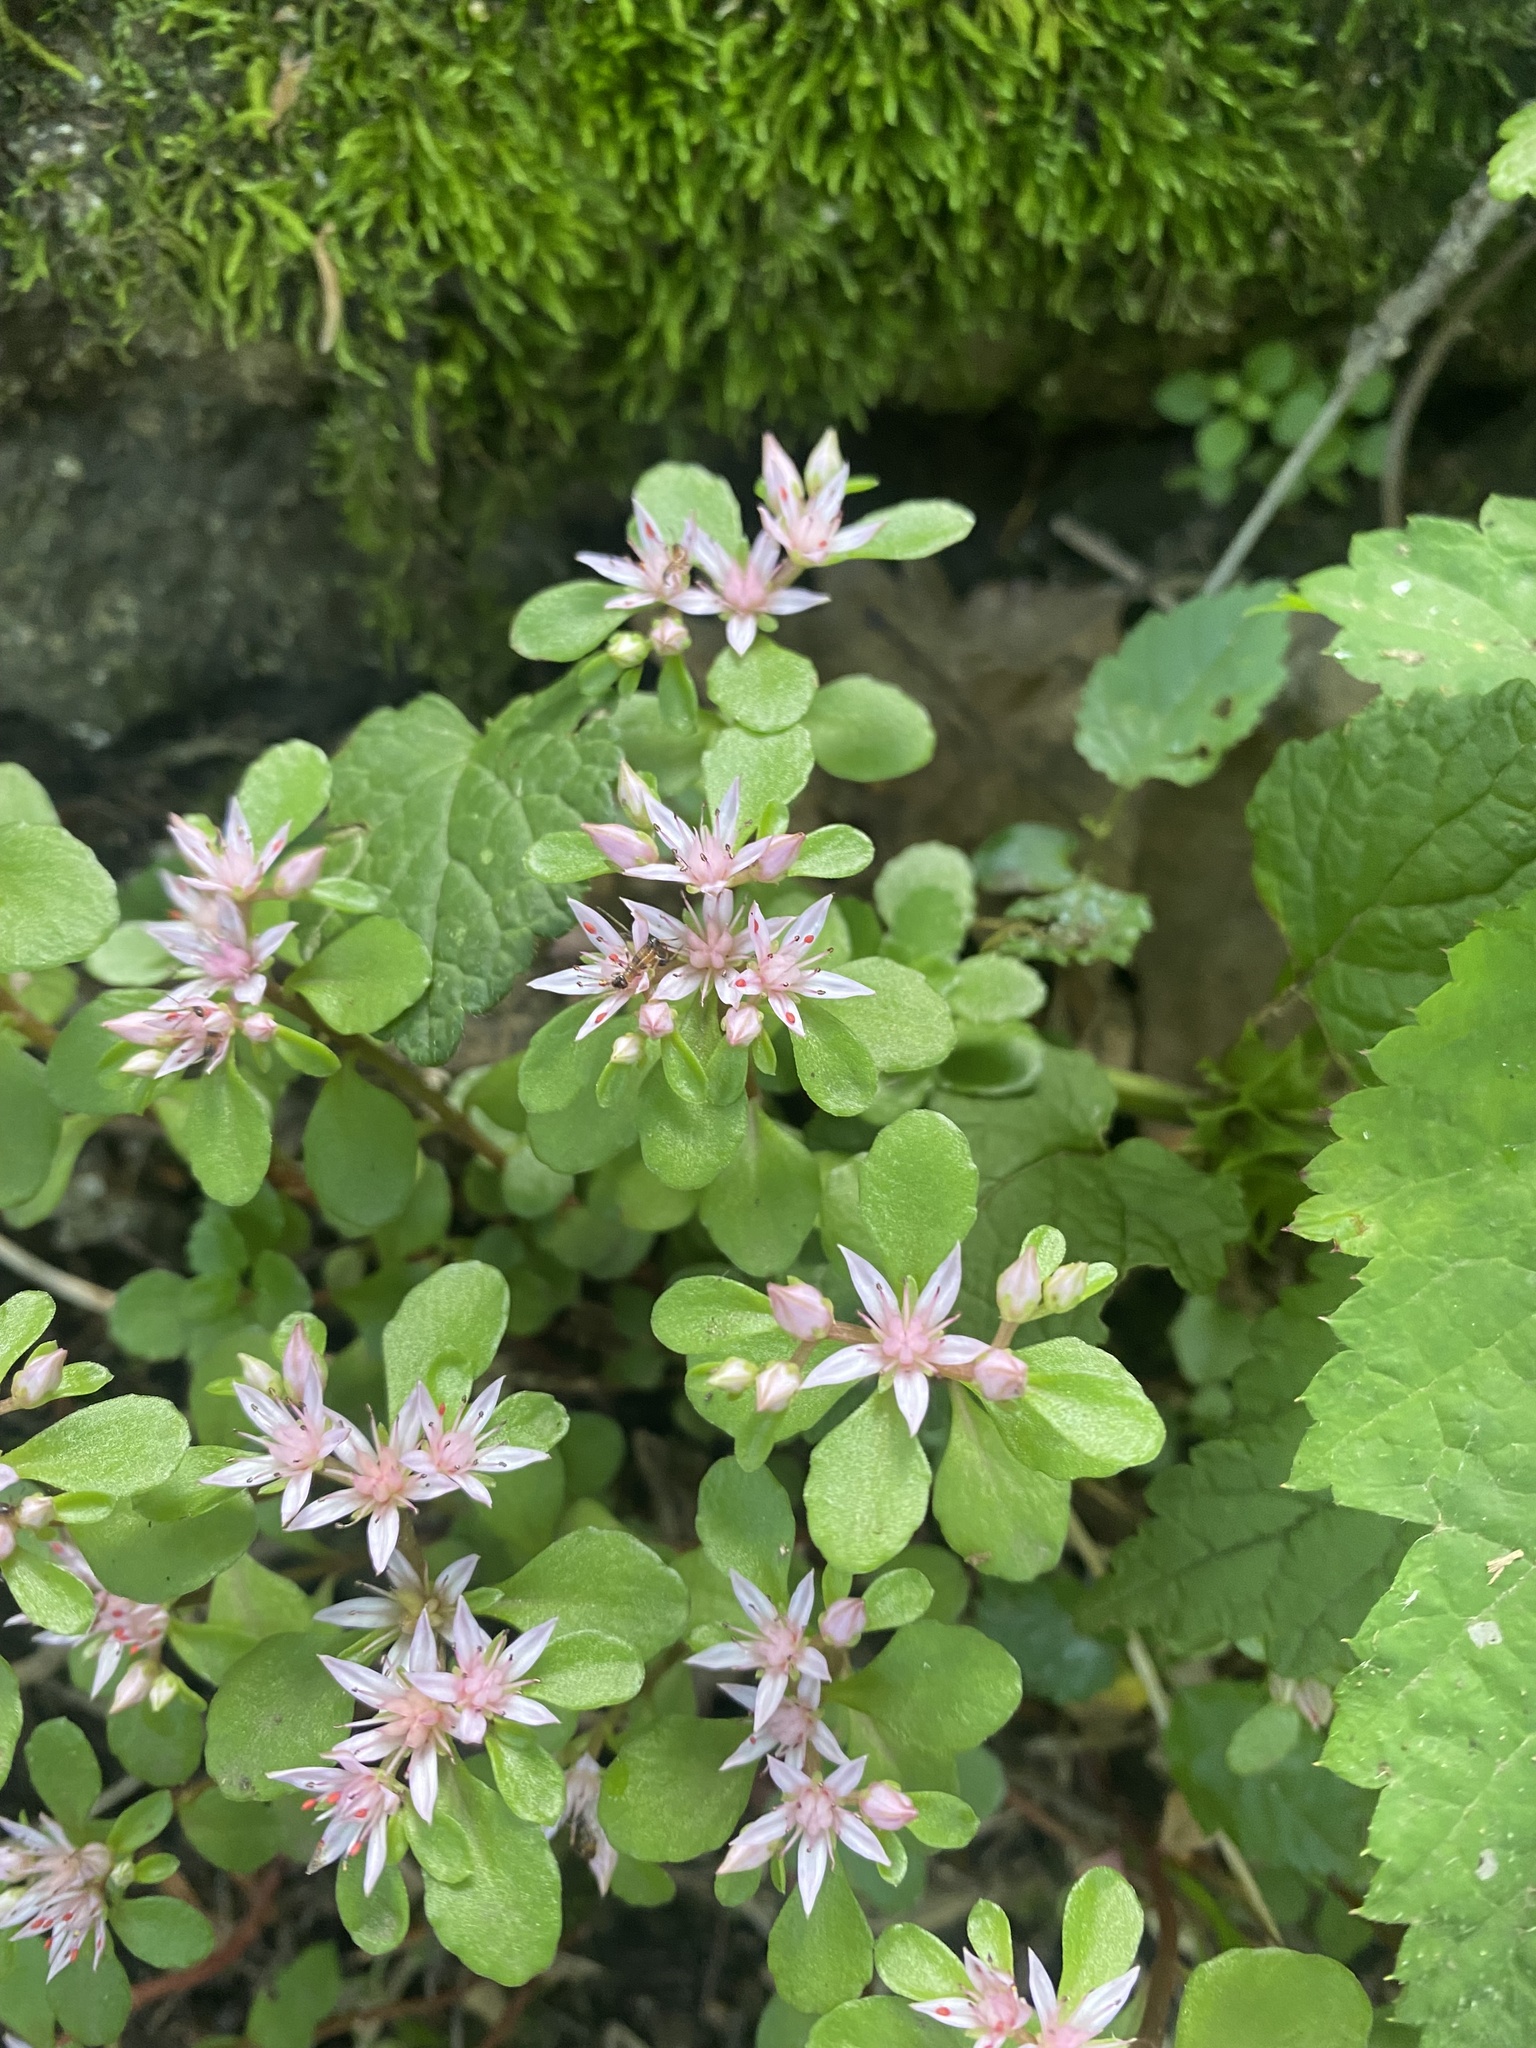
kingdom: Plantae
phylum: Tracheophyta
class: Magnoliopsida
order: Saxifragales
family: Crassulaceae
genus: Phedimus
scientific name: Phedimus stolonifer
